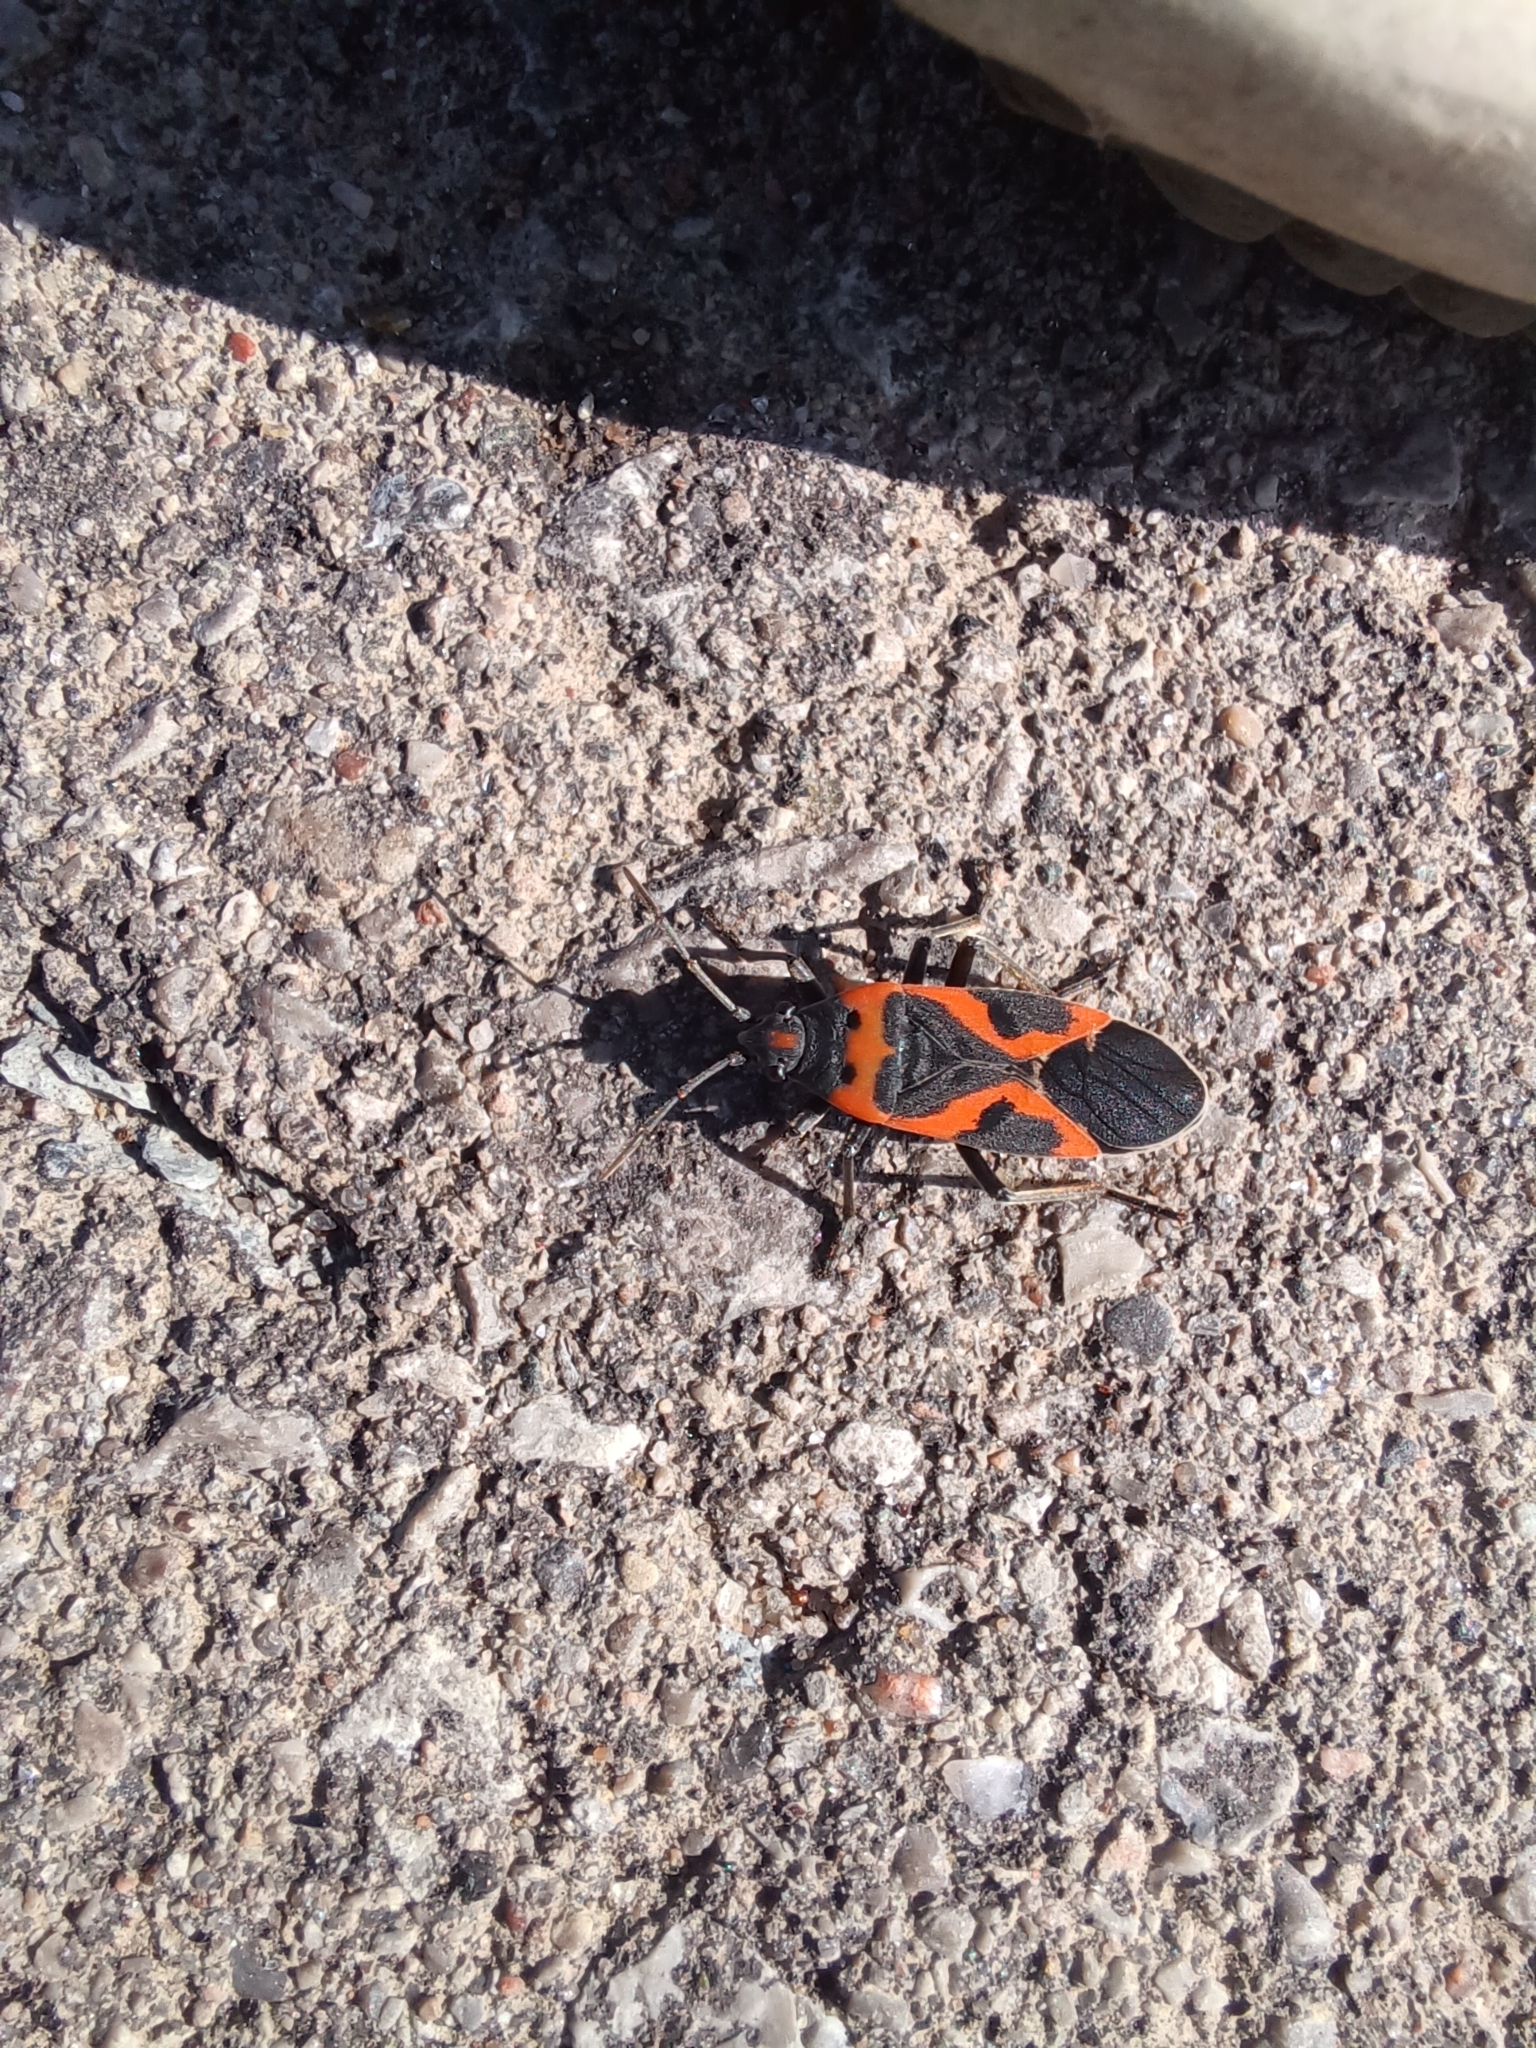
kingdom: Animalia
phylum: Arthropoda
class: Insecta
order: Hemiptera
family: Lygaeidae
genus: Lygaeus
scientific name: Lygaeus kalmii
